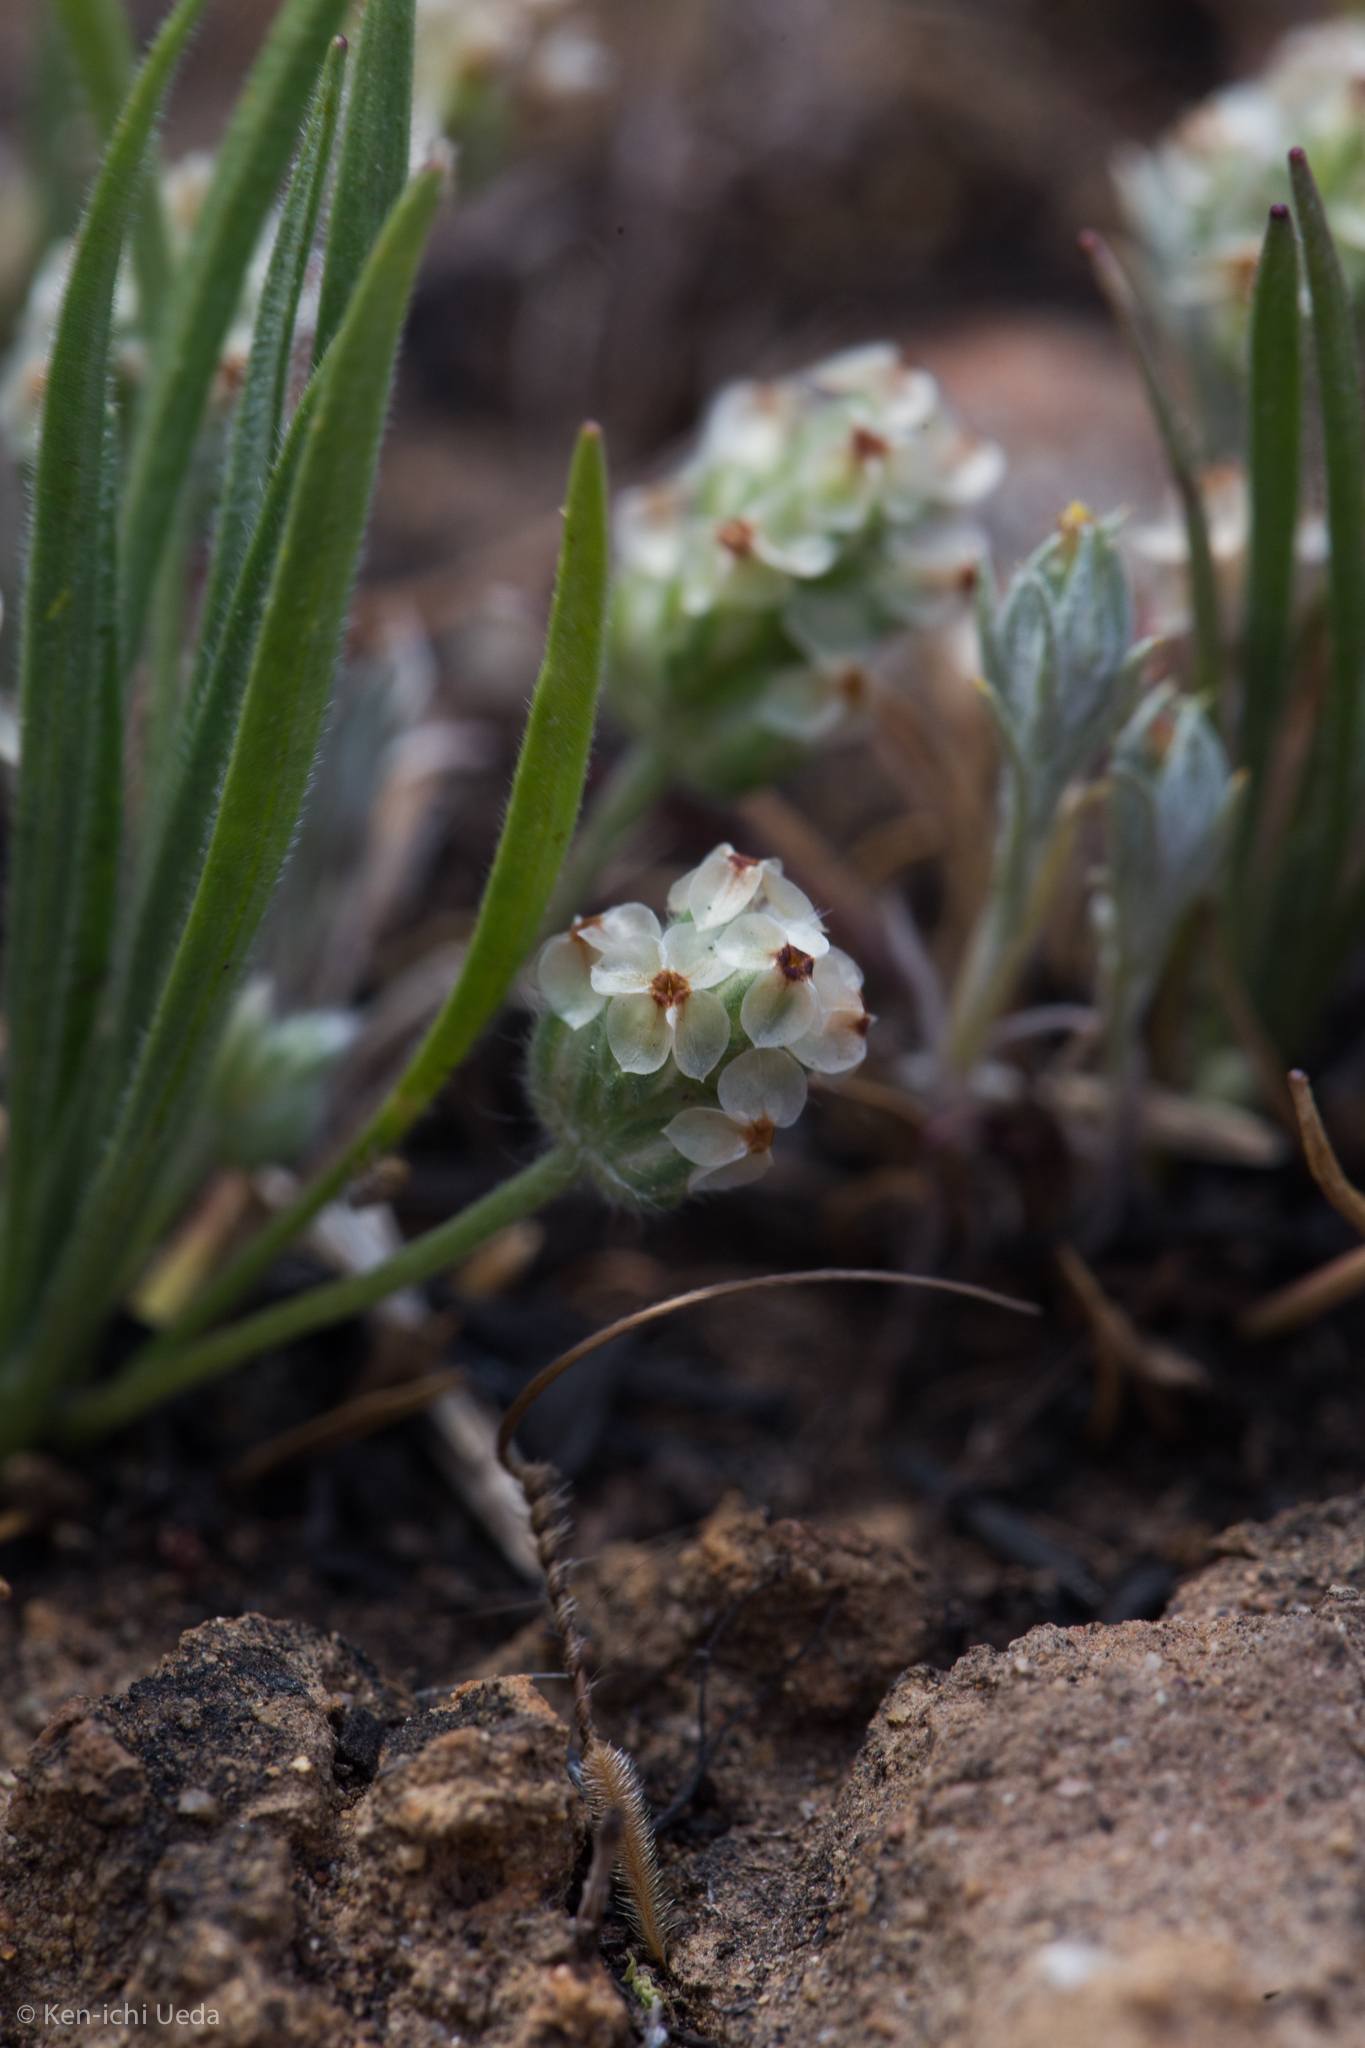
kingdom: Plantae
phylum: Tracheophyta
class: Magnoliopsida
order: Lamiales
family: Plantaginaceae
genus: Plantago
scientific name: Plantago erecta
